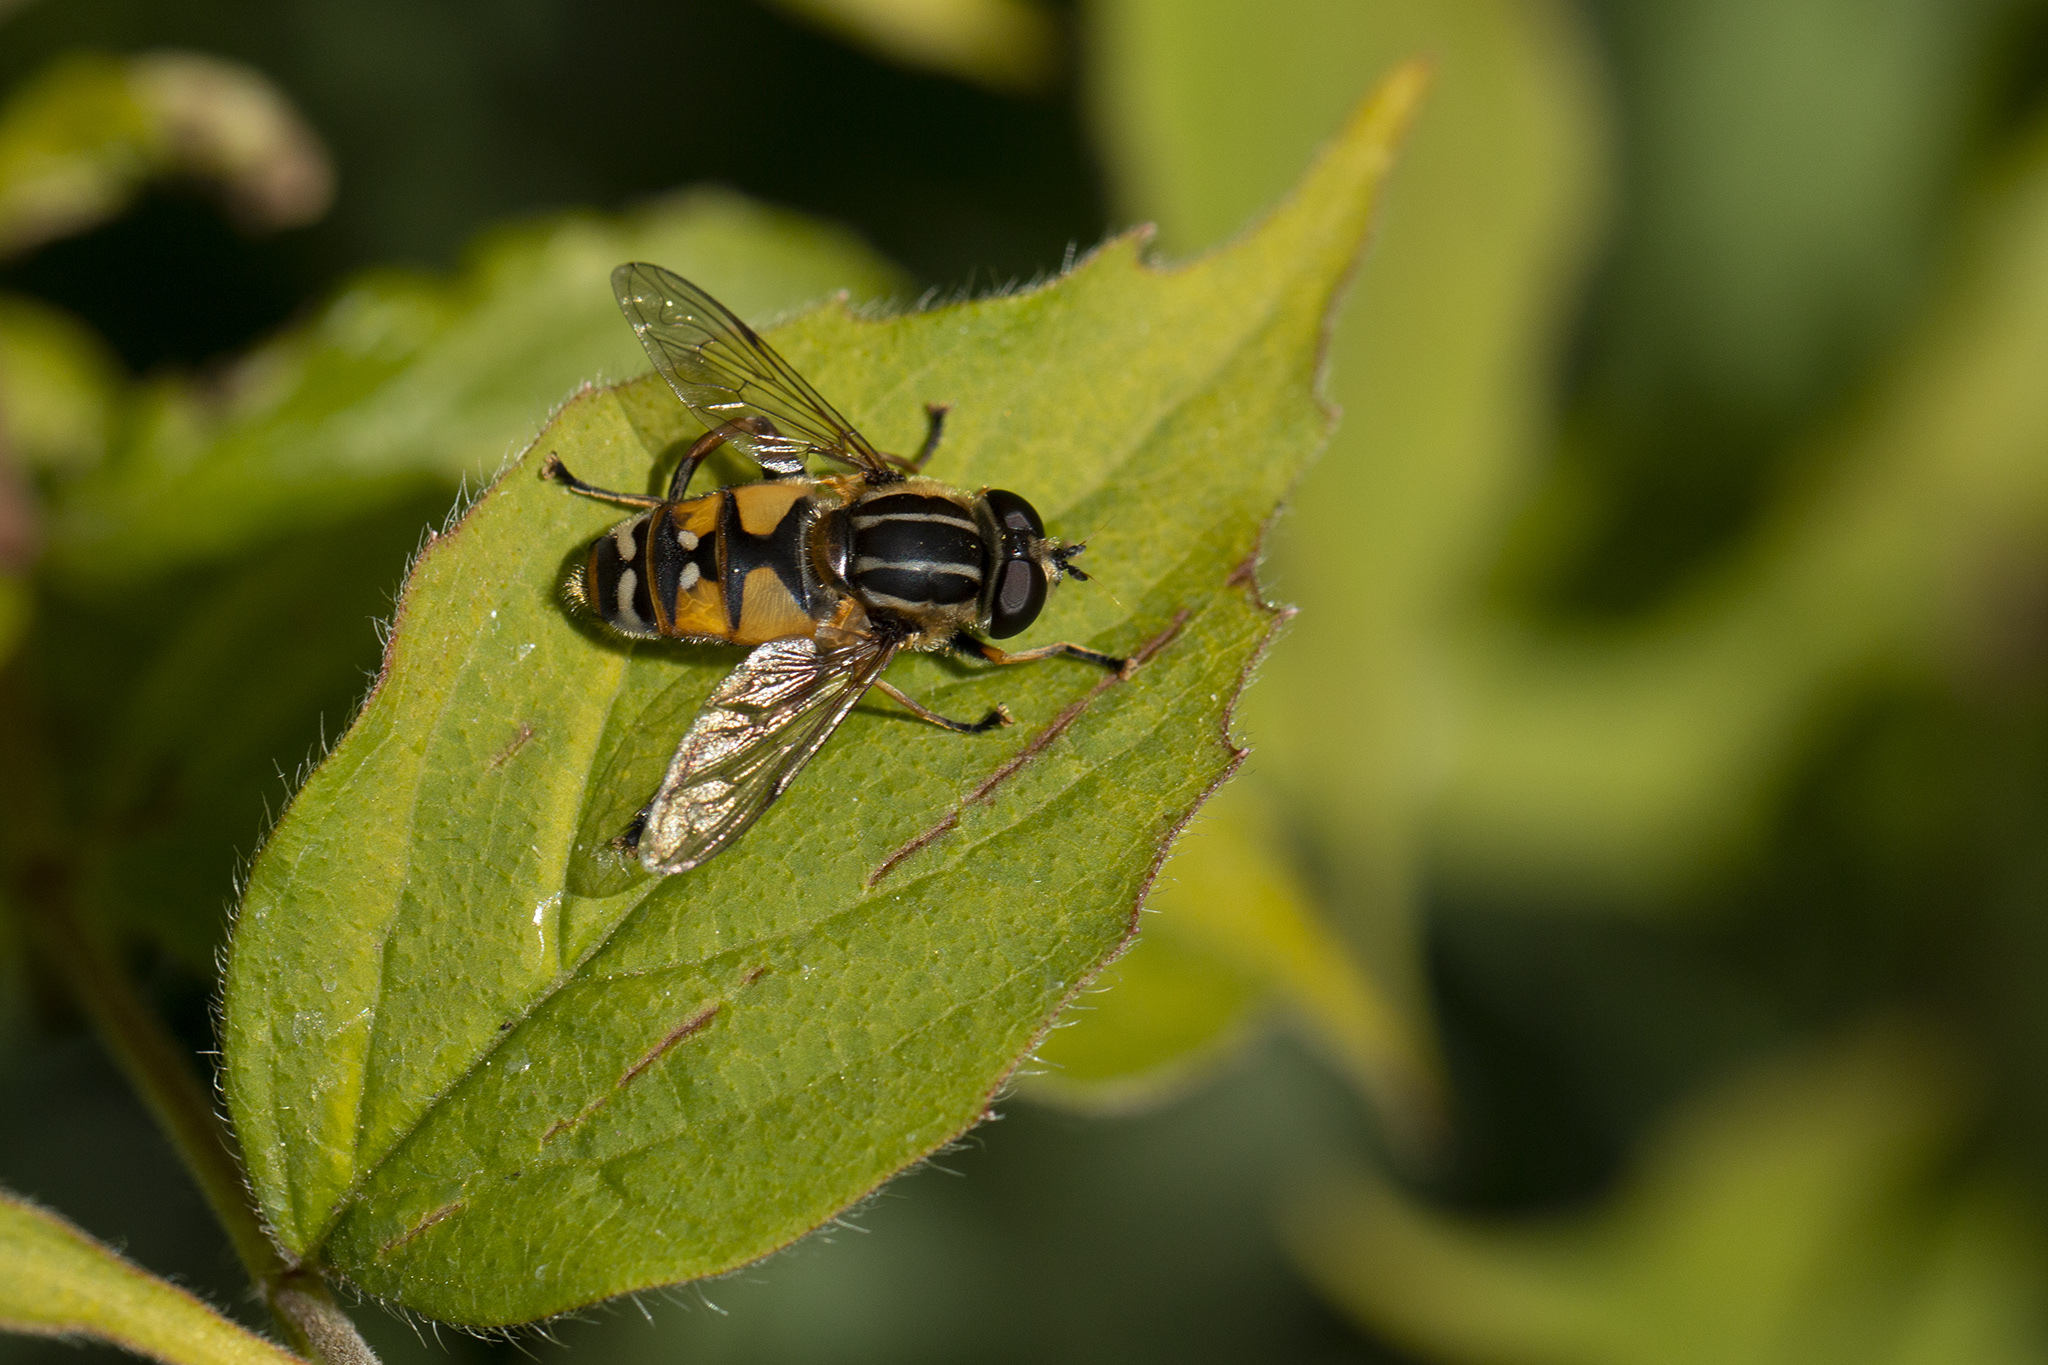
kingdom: Animalia
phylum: Arthropoda
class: Insecta
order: Diptera
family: Syrphidae
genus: Helophilus
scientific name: Helophilus pendulus
